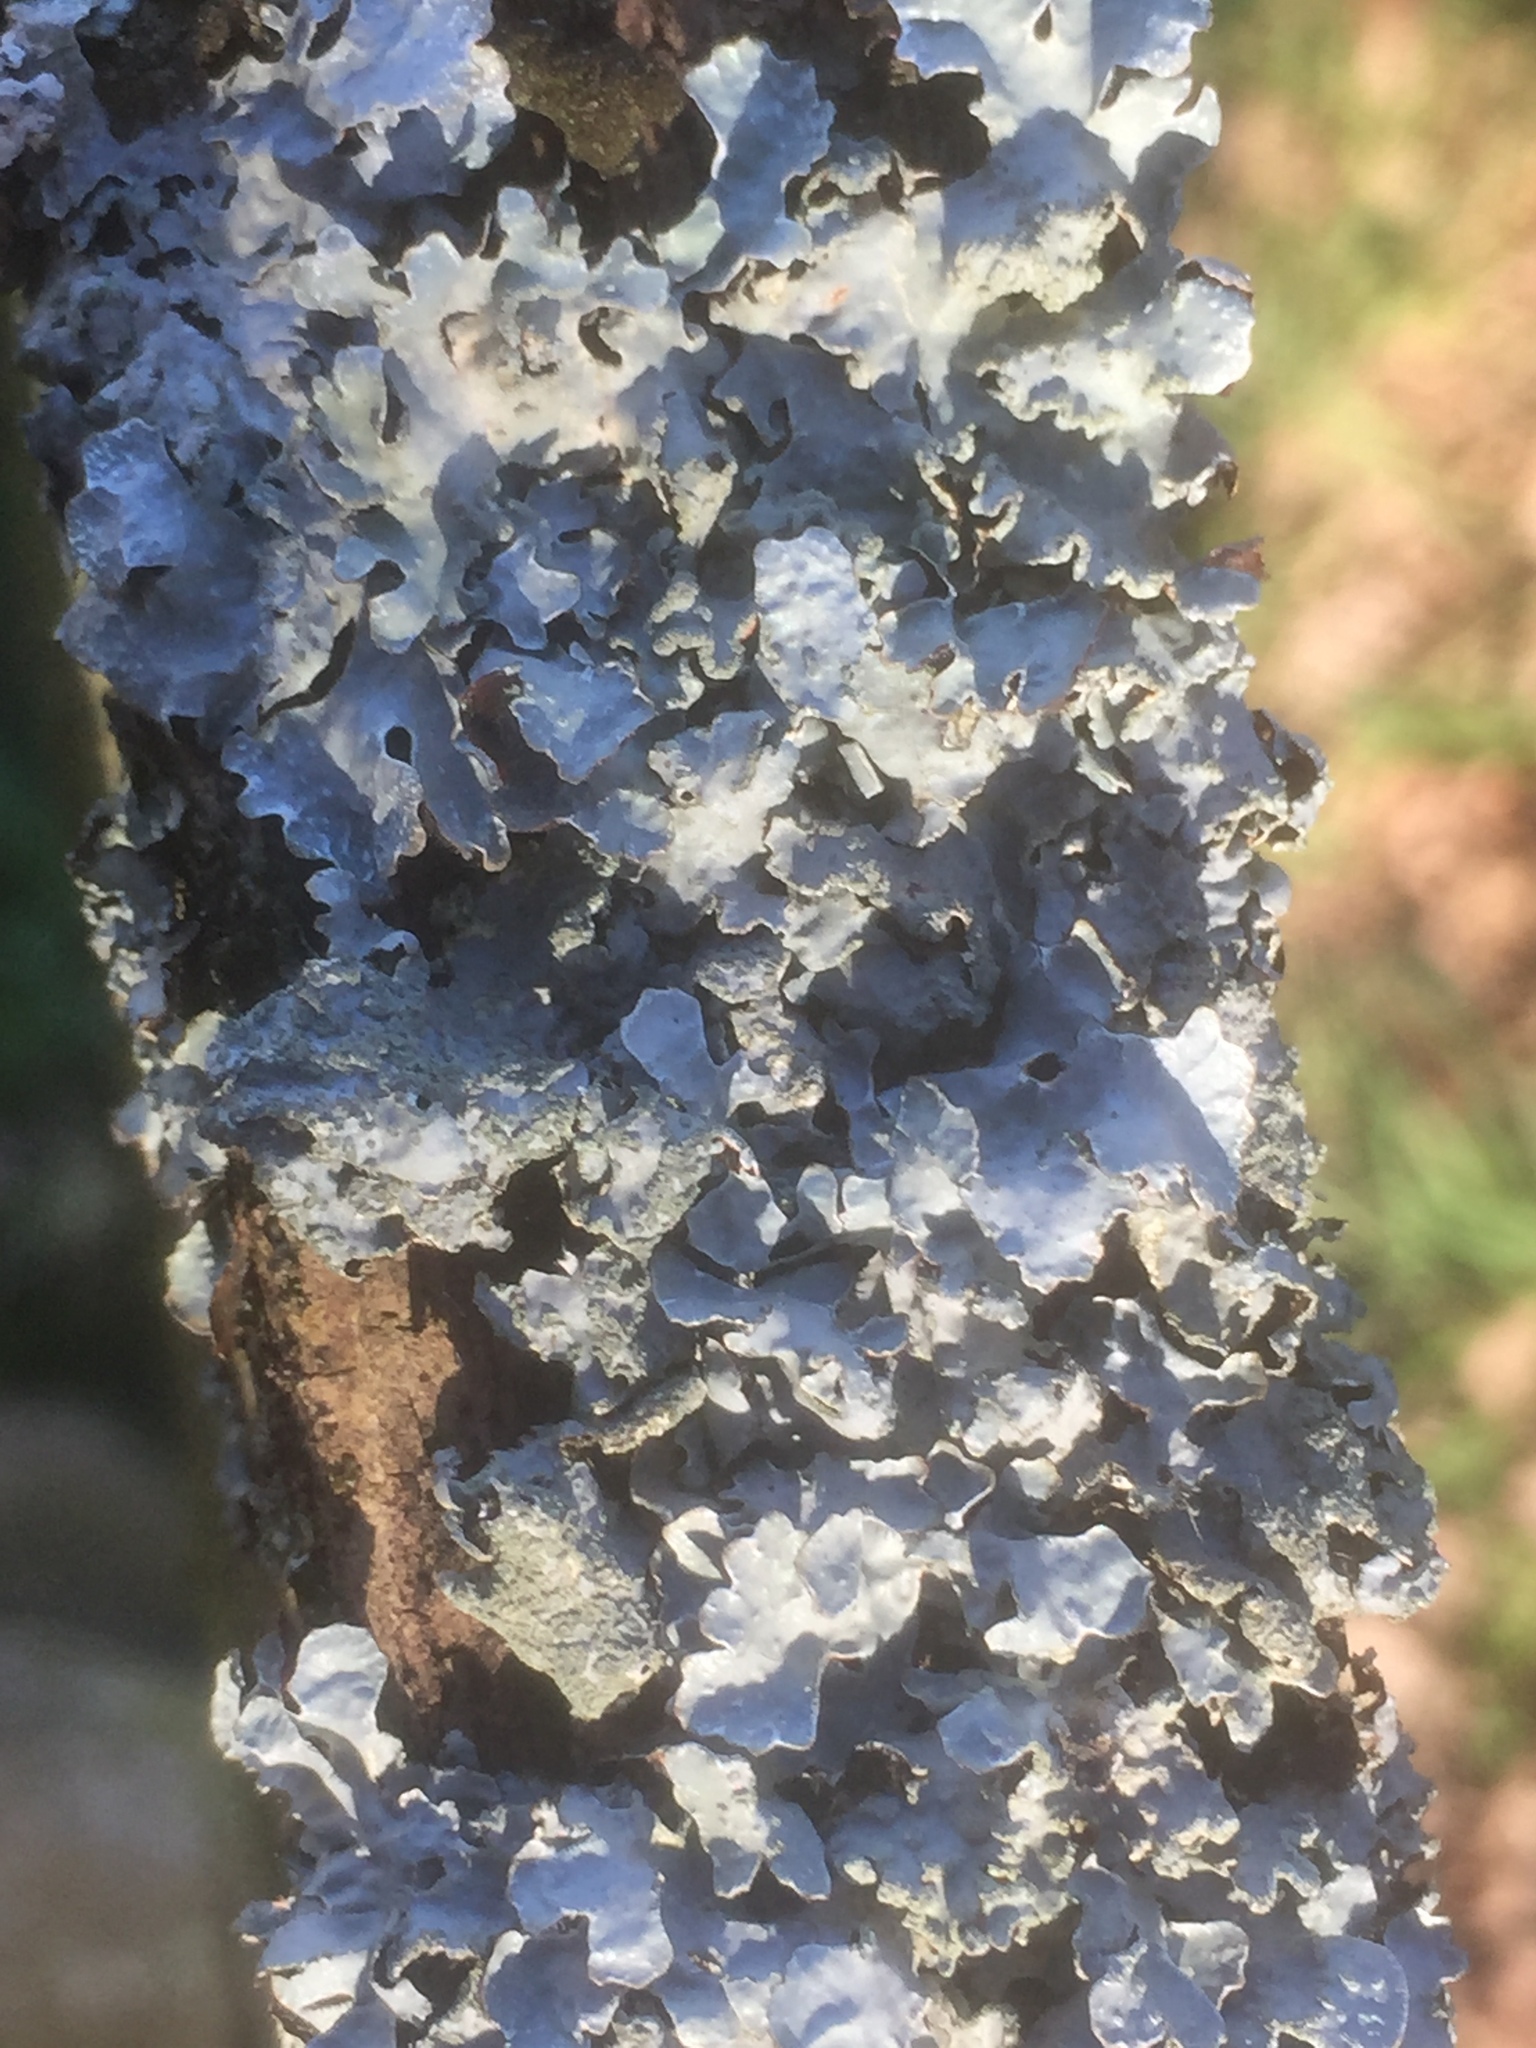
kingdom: Fungi
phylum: Ascomycota
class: Lecanoromycetes
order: Lecanorales
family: Parmeliaceae
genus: Parmelia
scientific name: Parmelia sulcata
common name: Netted shield lichen
